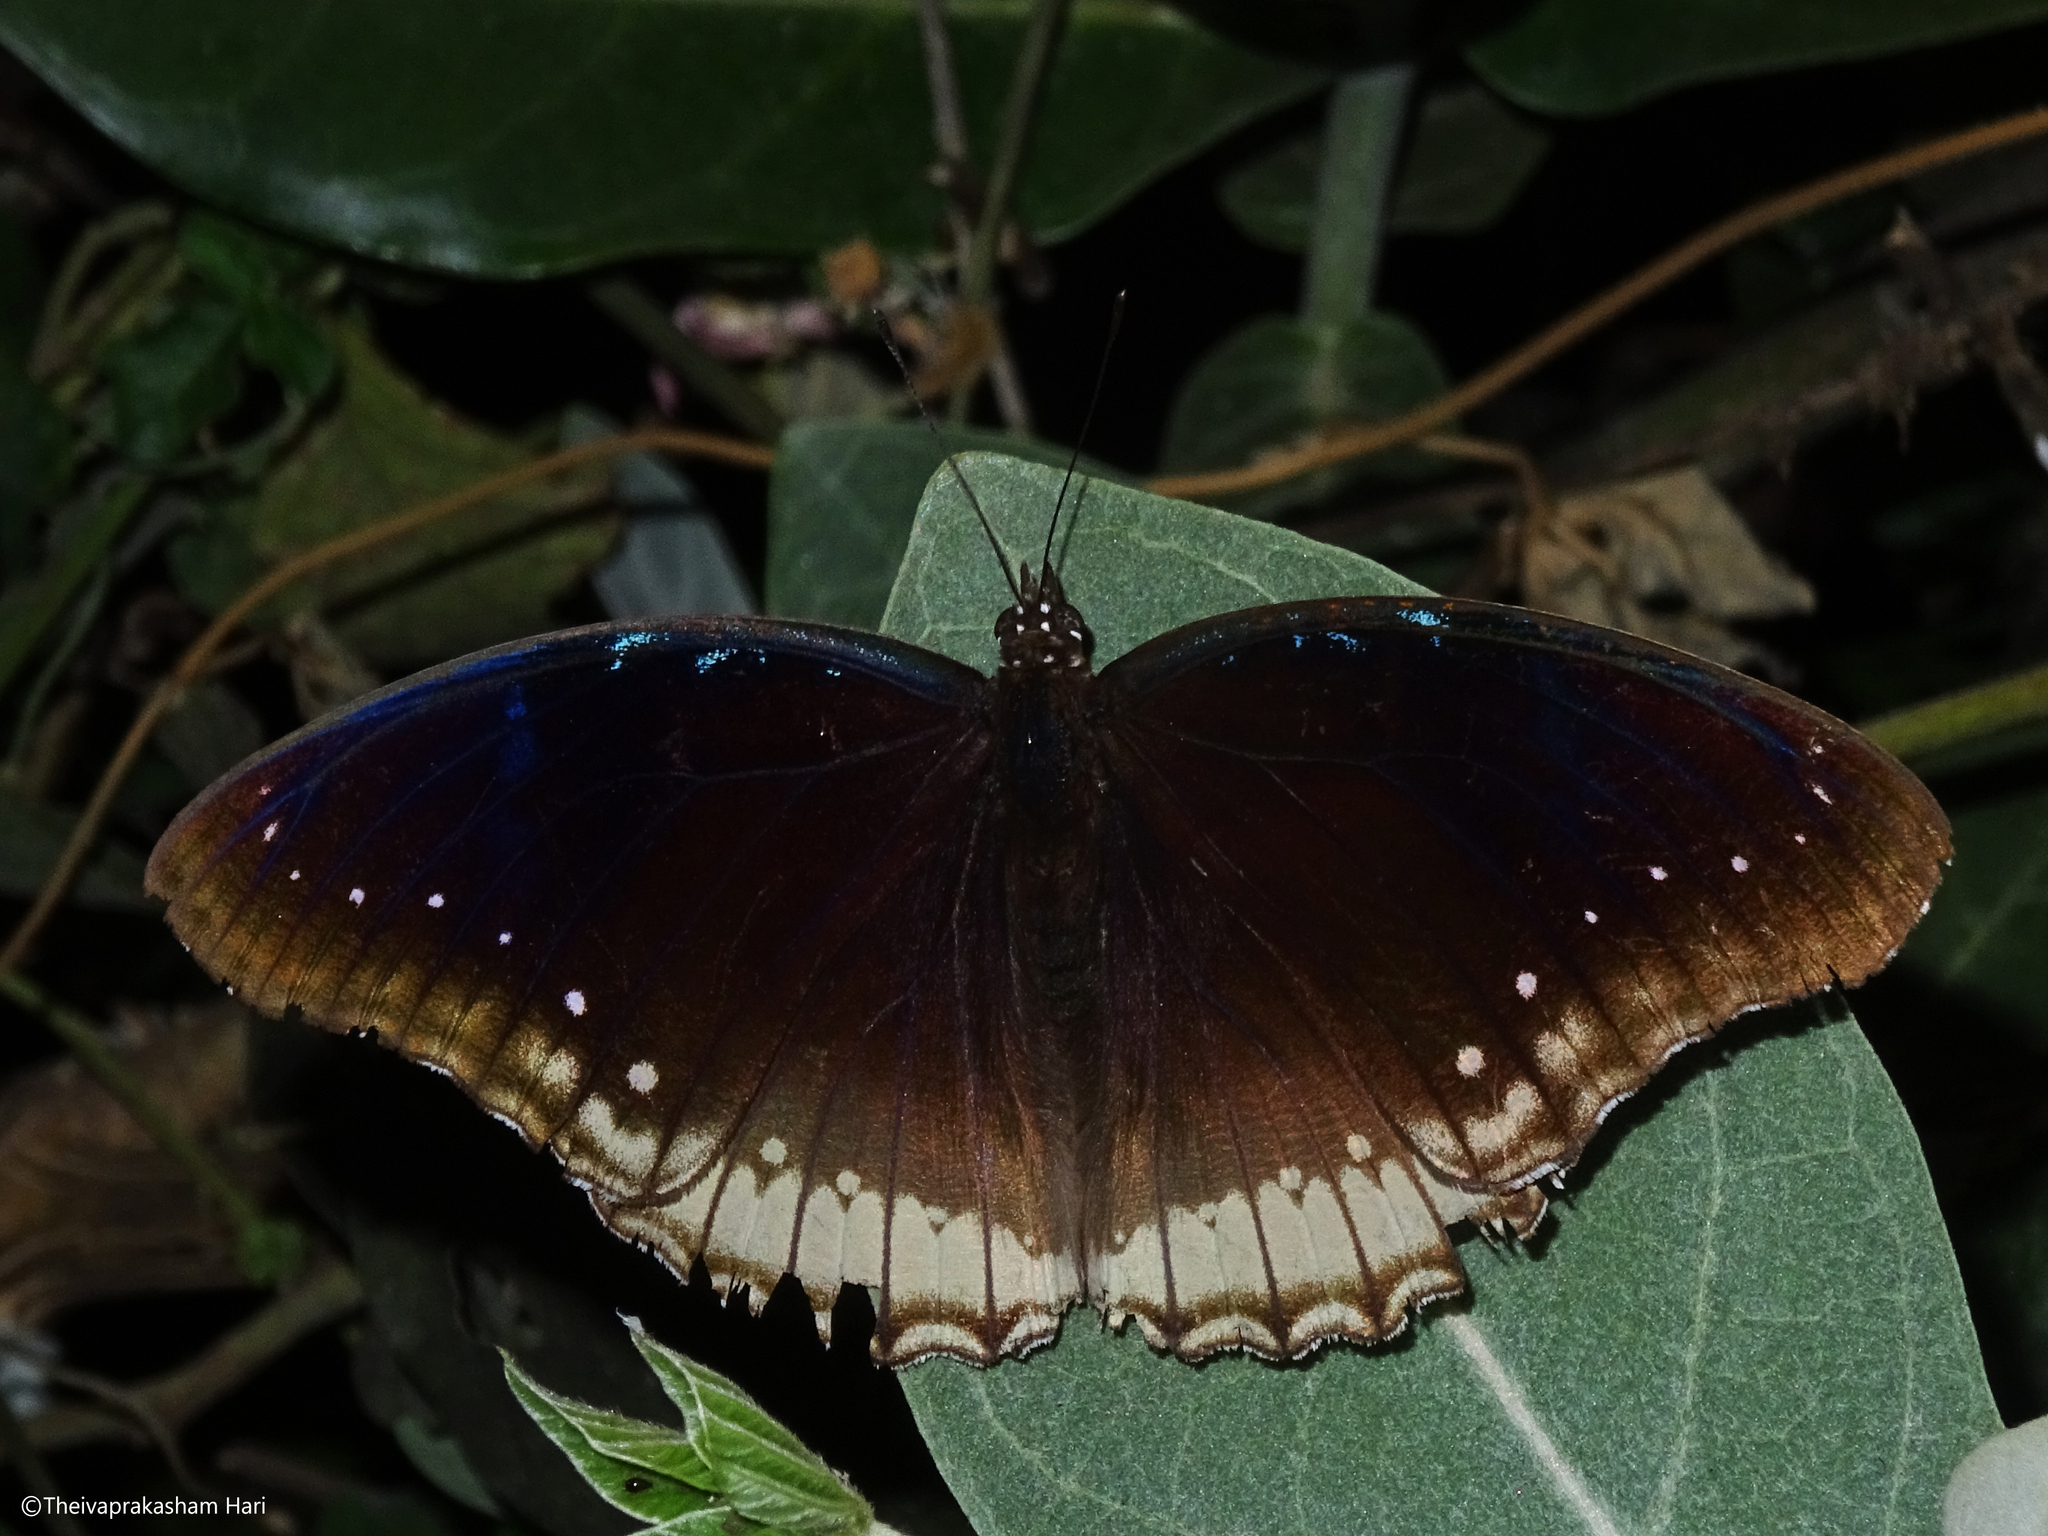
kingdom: Animalia
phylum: Arthropoda
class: Insecta
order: Lepidoptera
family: Nymphalidae
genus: Hypolimnas
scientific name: Hypolimnas bolina
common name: Great eggfly
